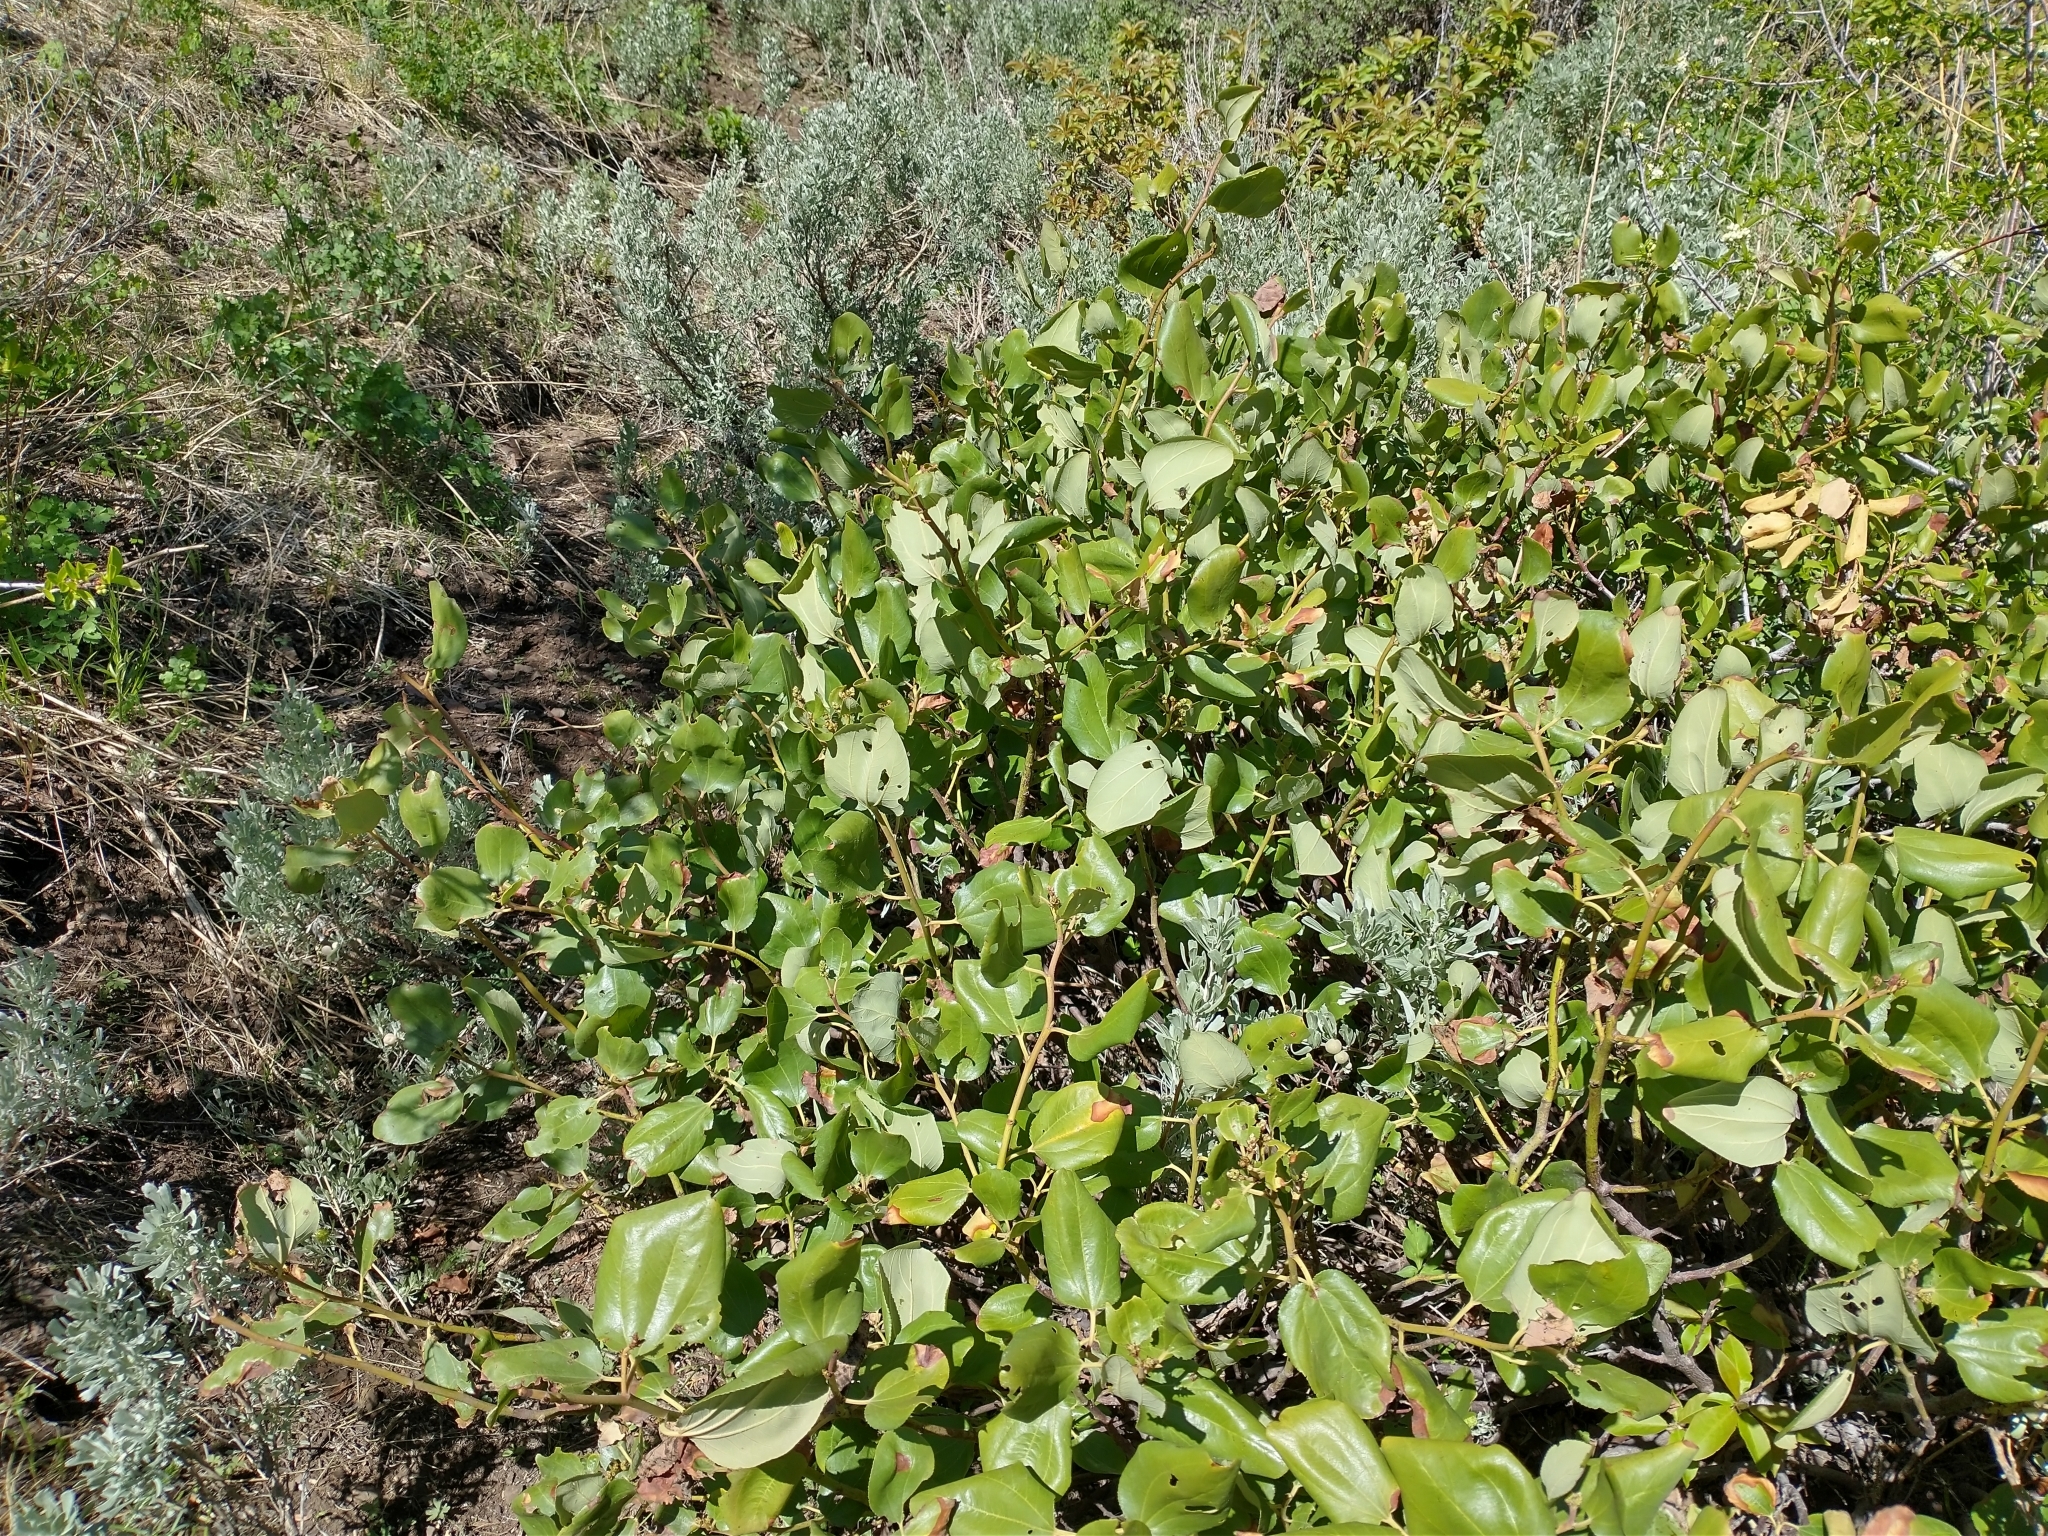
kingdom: Plantae
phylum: Tracheophyta
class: Magnoliopsida
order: Rosales
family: Rhamnaceae
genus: Ceanothus
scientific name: Ceanothus velutinus
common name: Snowbrush
